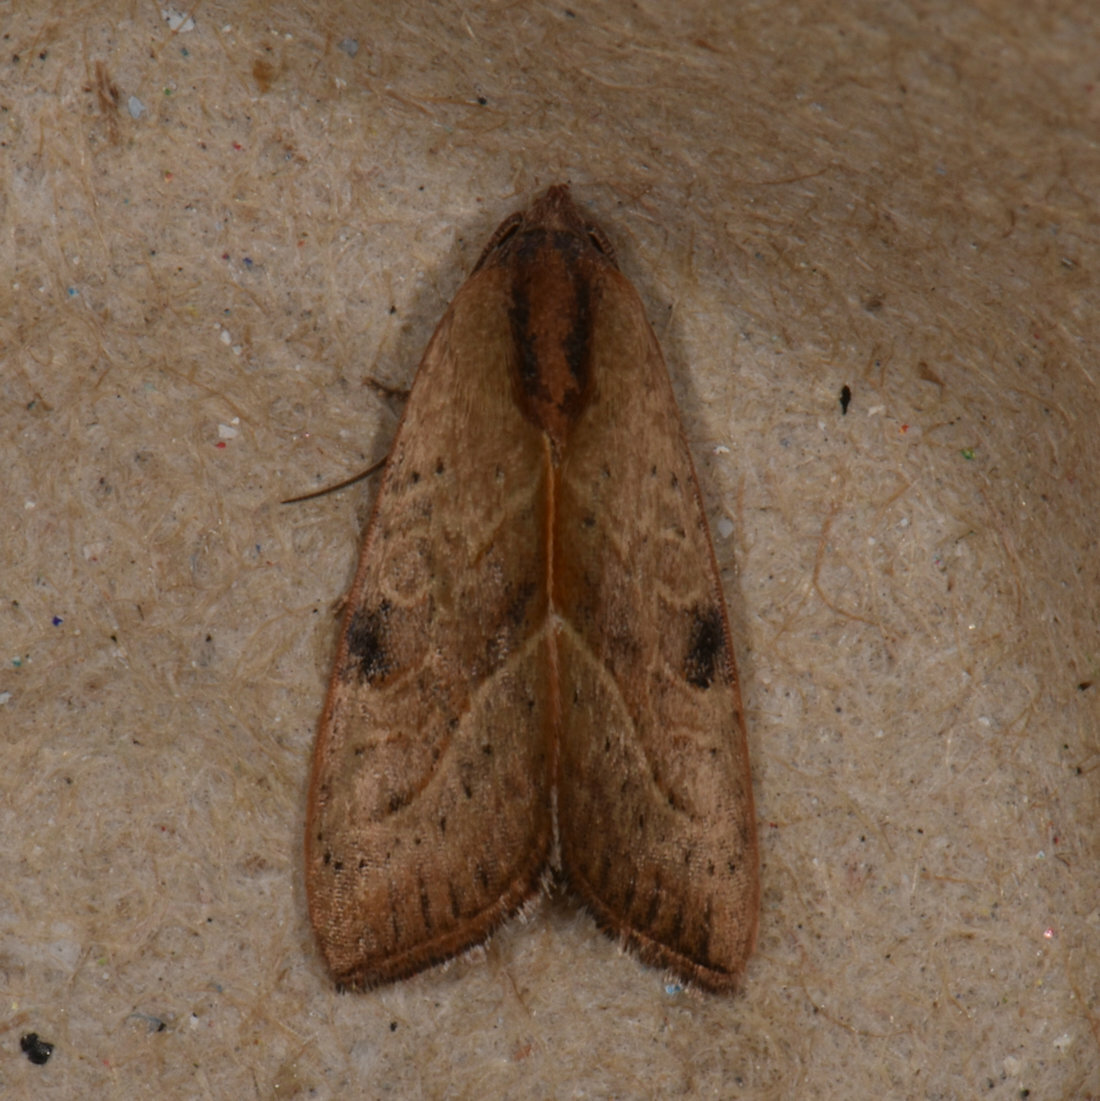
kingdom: Animalia
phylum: Arthropoda
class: Insecta
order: Lepidoptera
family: Noctuidae
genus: Galgula
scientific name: Galgula partita
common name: Wedgeling
